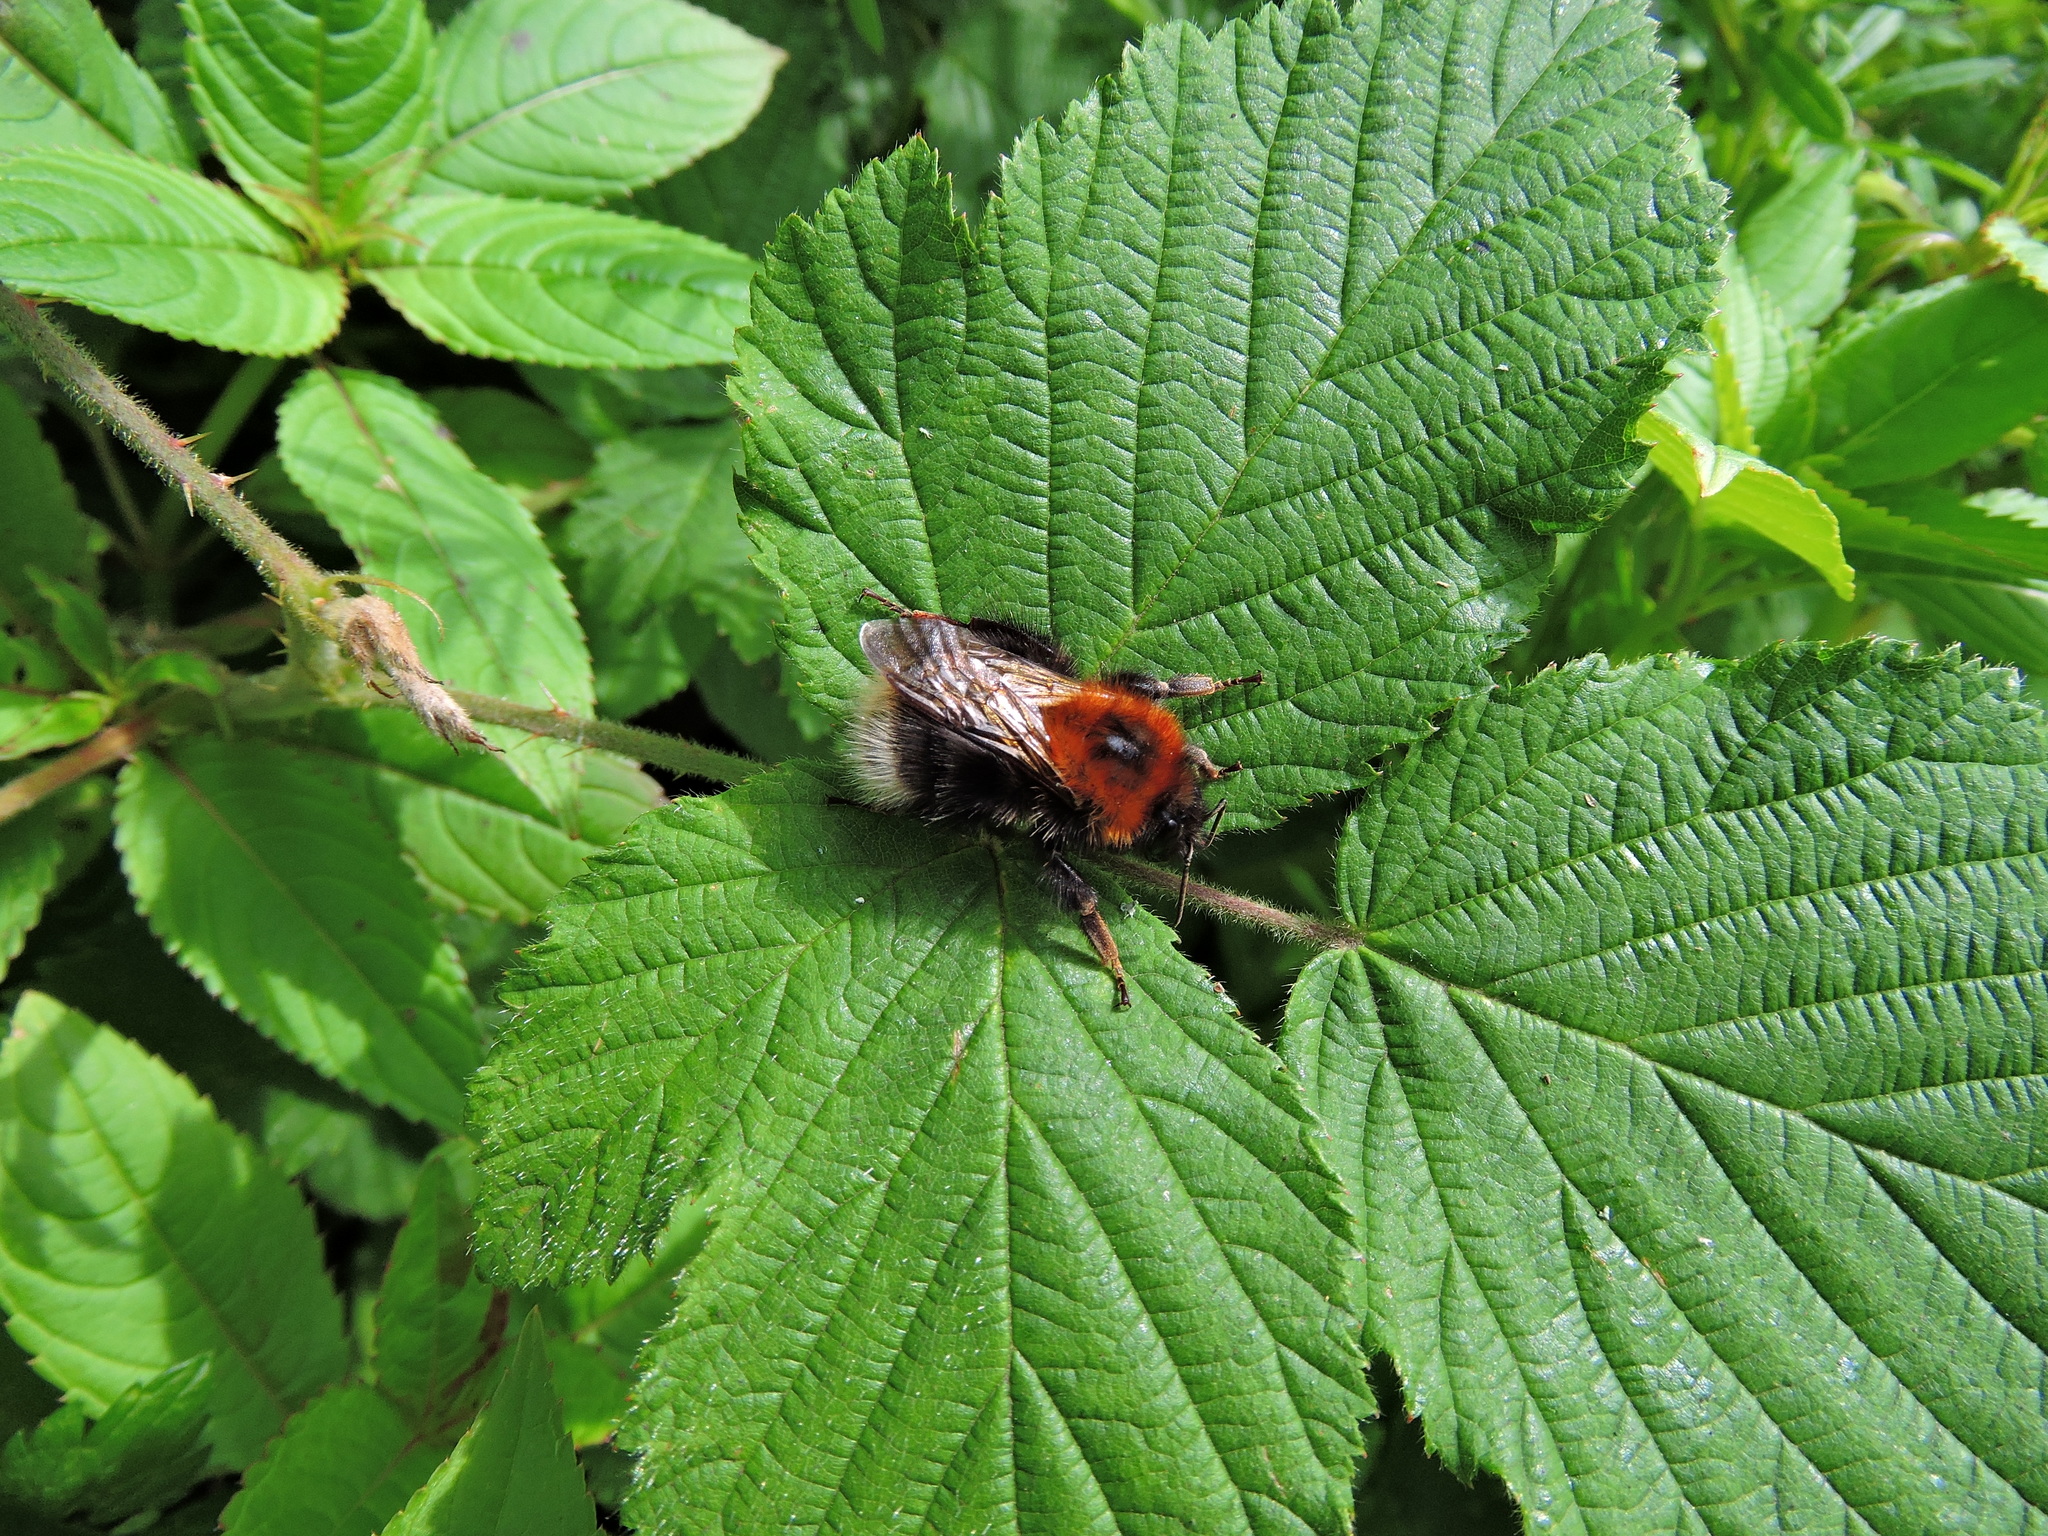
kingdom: Animalia
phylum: Arthropoda
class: Insecta
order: Hymenoptera
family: Apidae
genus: Bombus
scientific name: Bombus hypnorum
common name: New garden bumblebee
